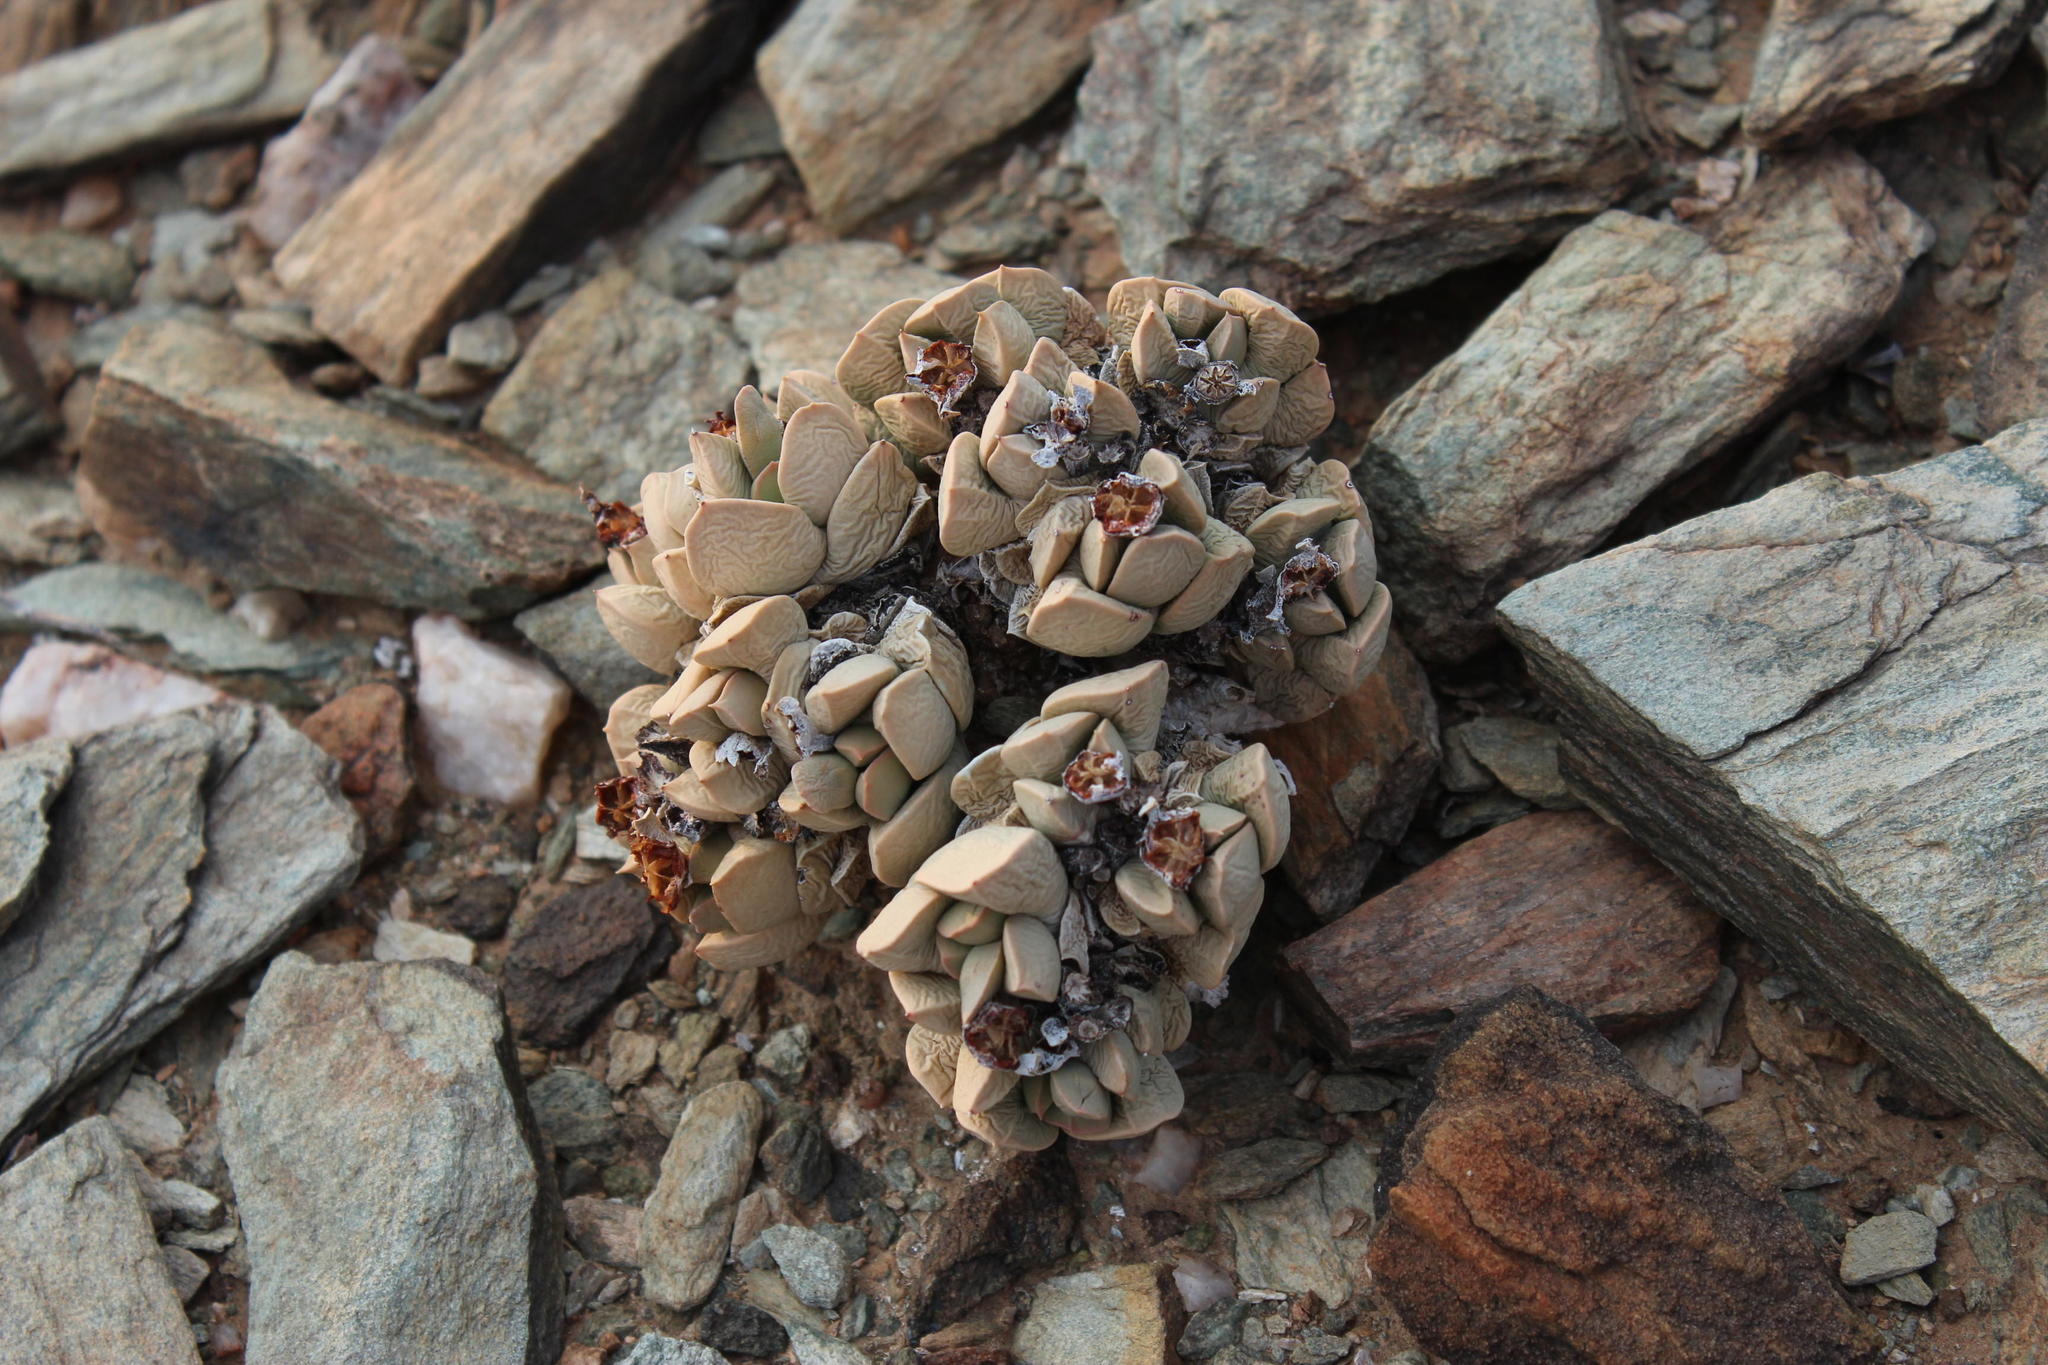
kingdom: Plantae
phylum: Tracheophyta
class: Magnoliopsida
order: Caryophyllales
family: Aizoaceae
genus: Schwantesia
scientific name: Schwantesia herrei
